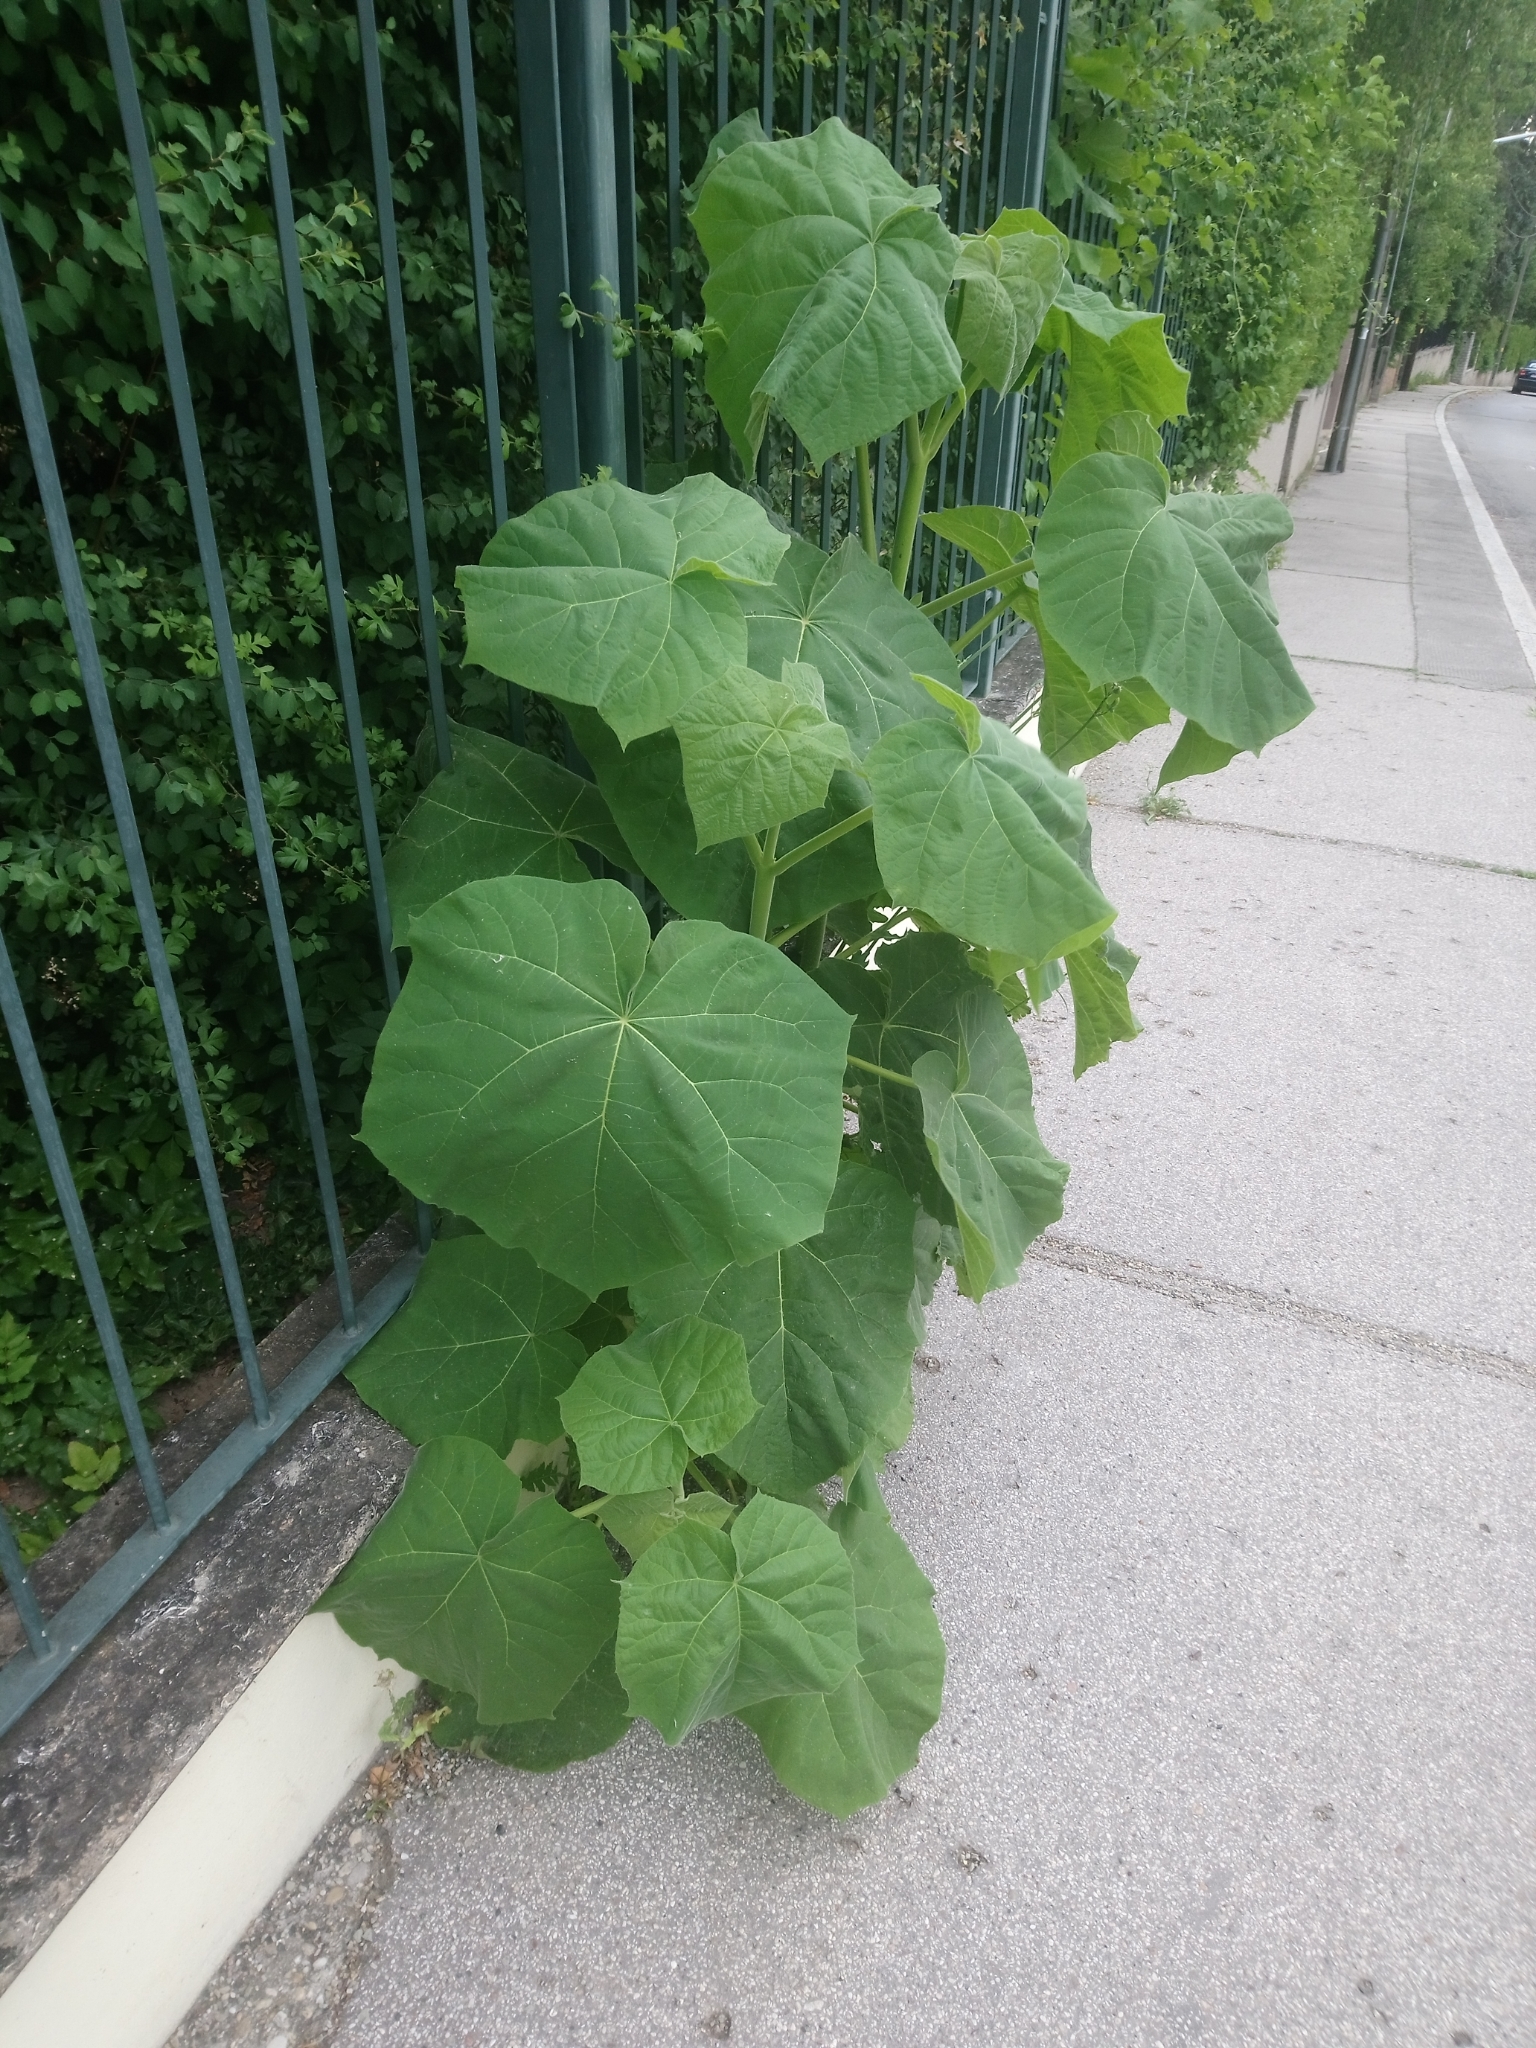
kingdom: Plantae
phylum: Tracheophyta
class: Magnoliopsida
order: Lamiales
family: Paulowniaceae
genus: Paulownia
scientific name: Paulownia tomentosa
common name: Foxglove-tree
